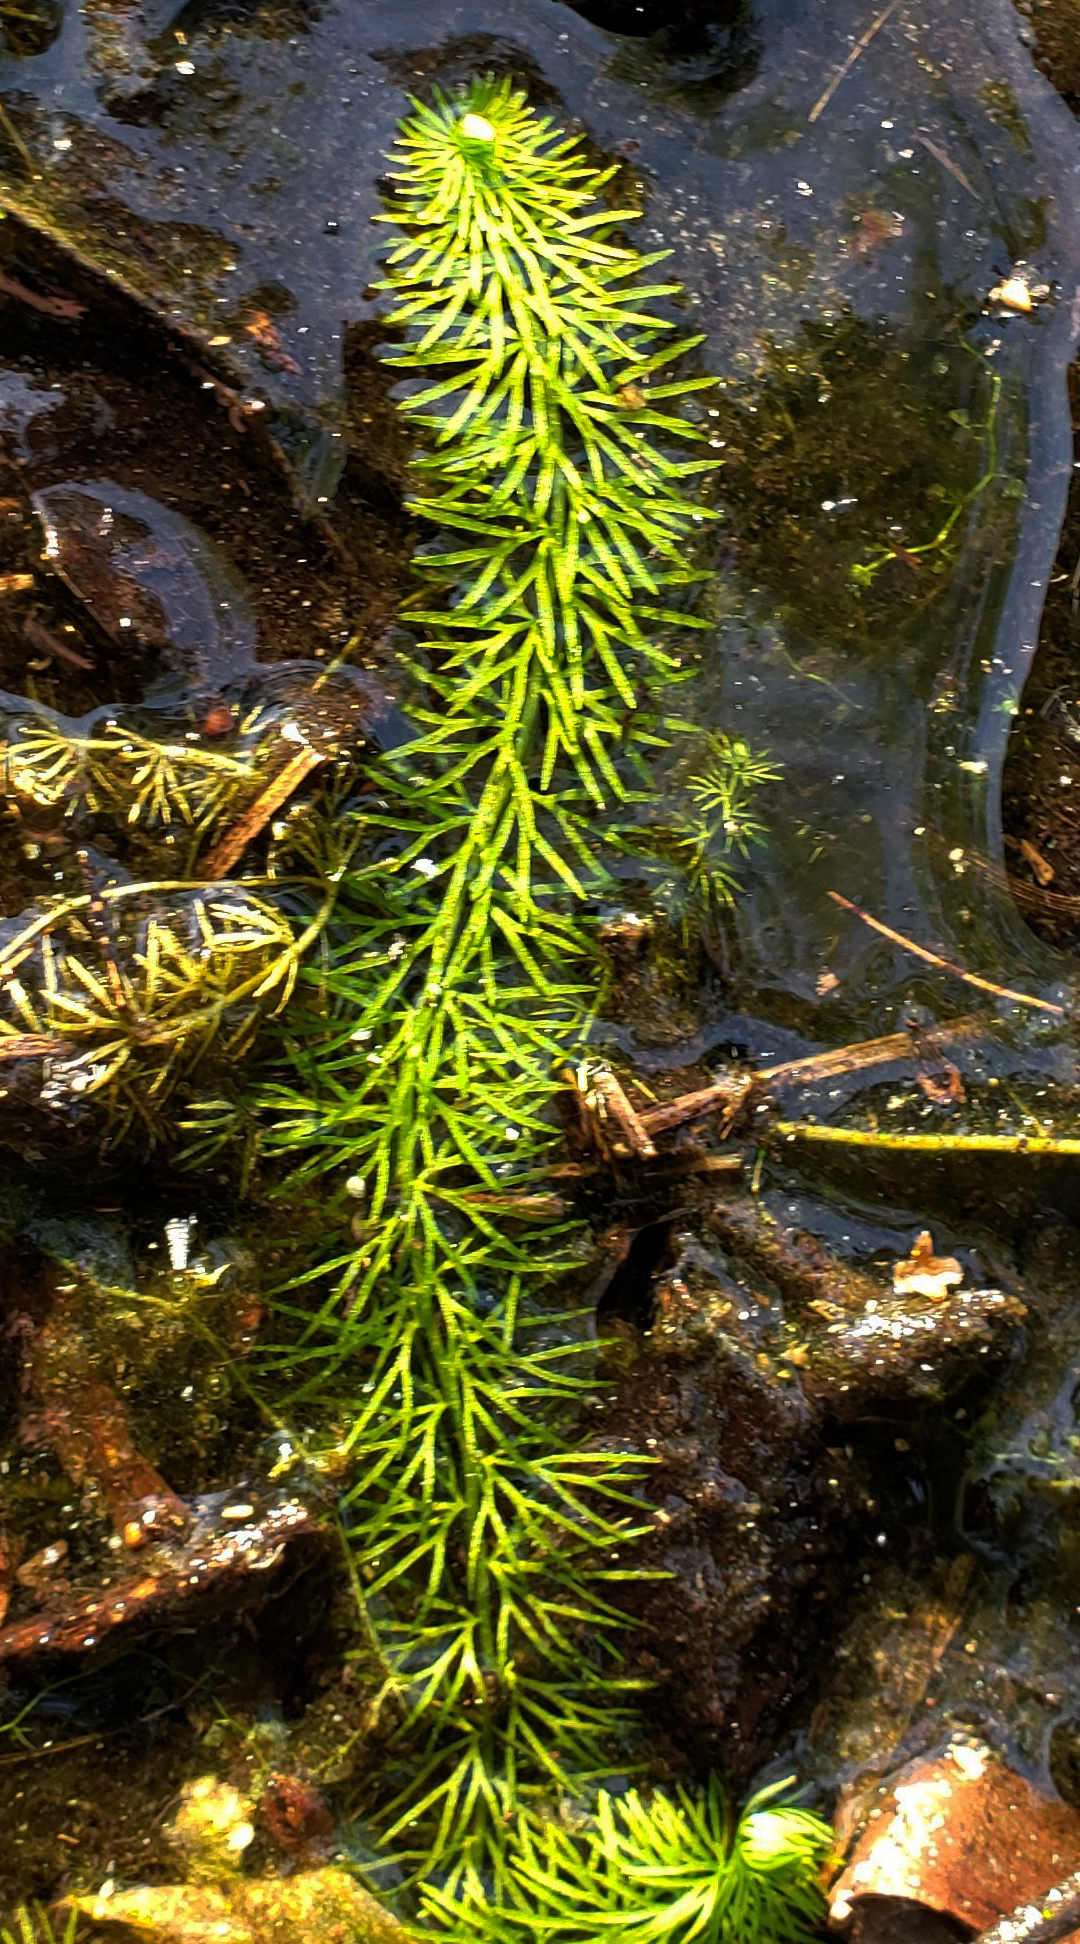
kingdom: Plantae
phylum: Tracheophyta
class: Magnoliopsida
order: Lamiales
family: Lentibulariaceae
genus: Utricularia
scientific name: Utricularia intermedia
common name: Intermediate bladderwort
